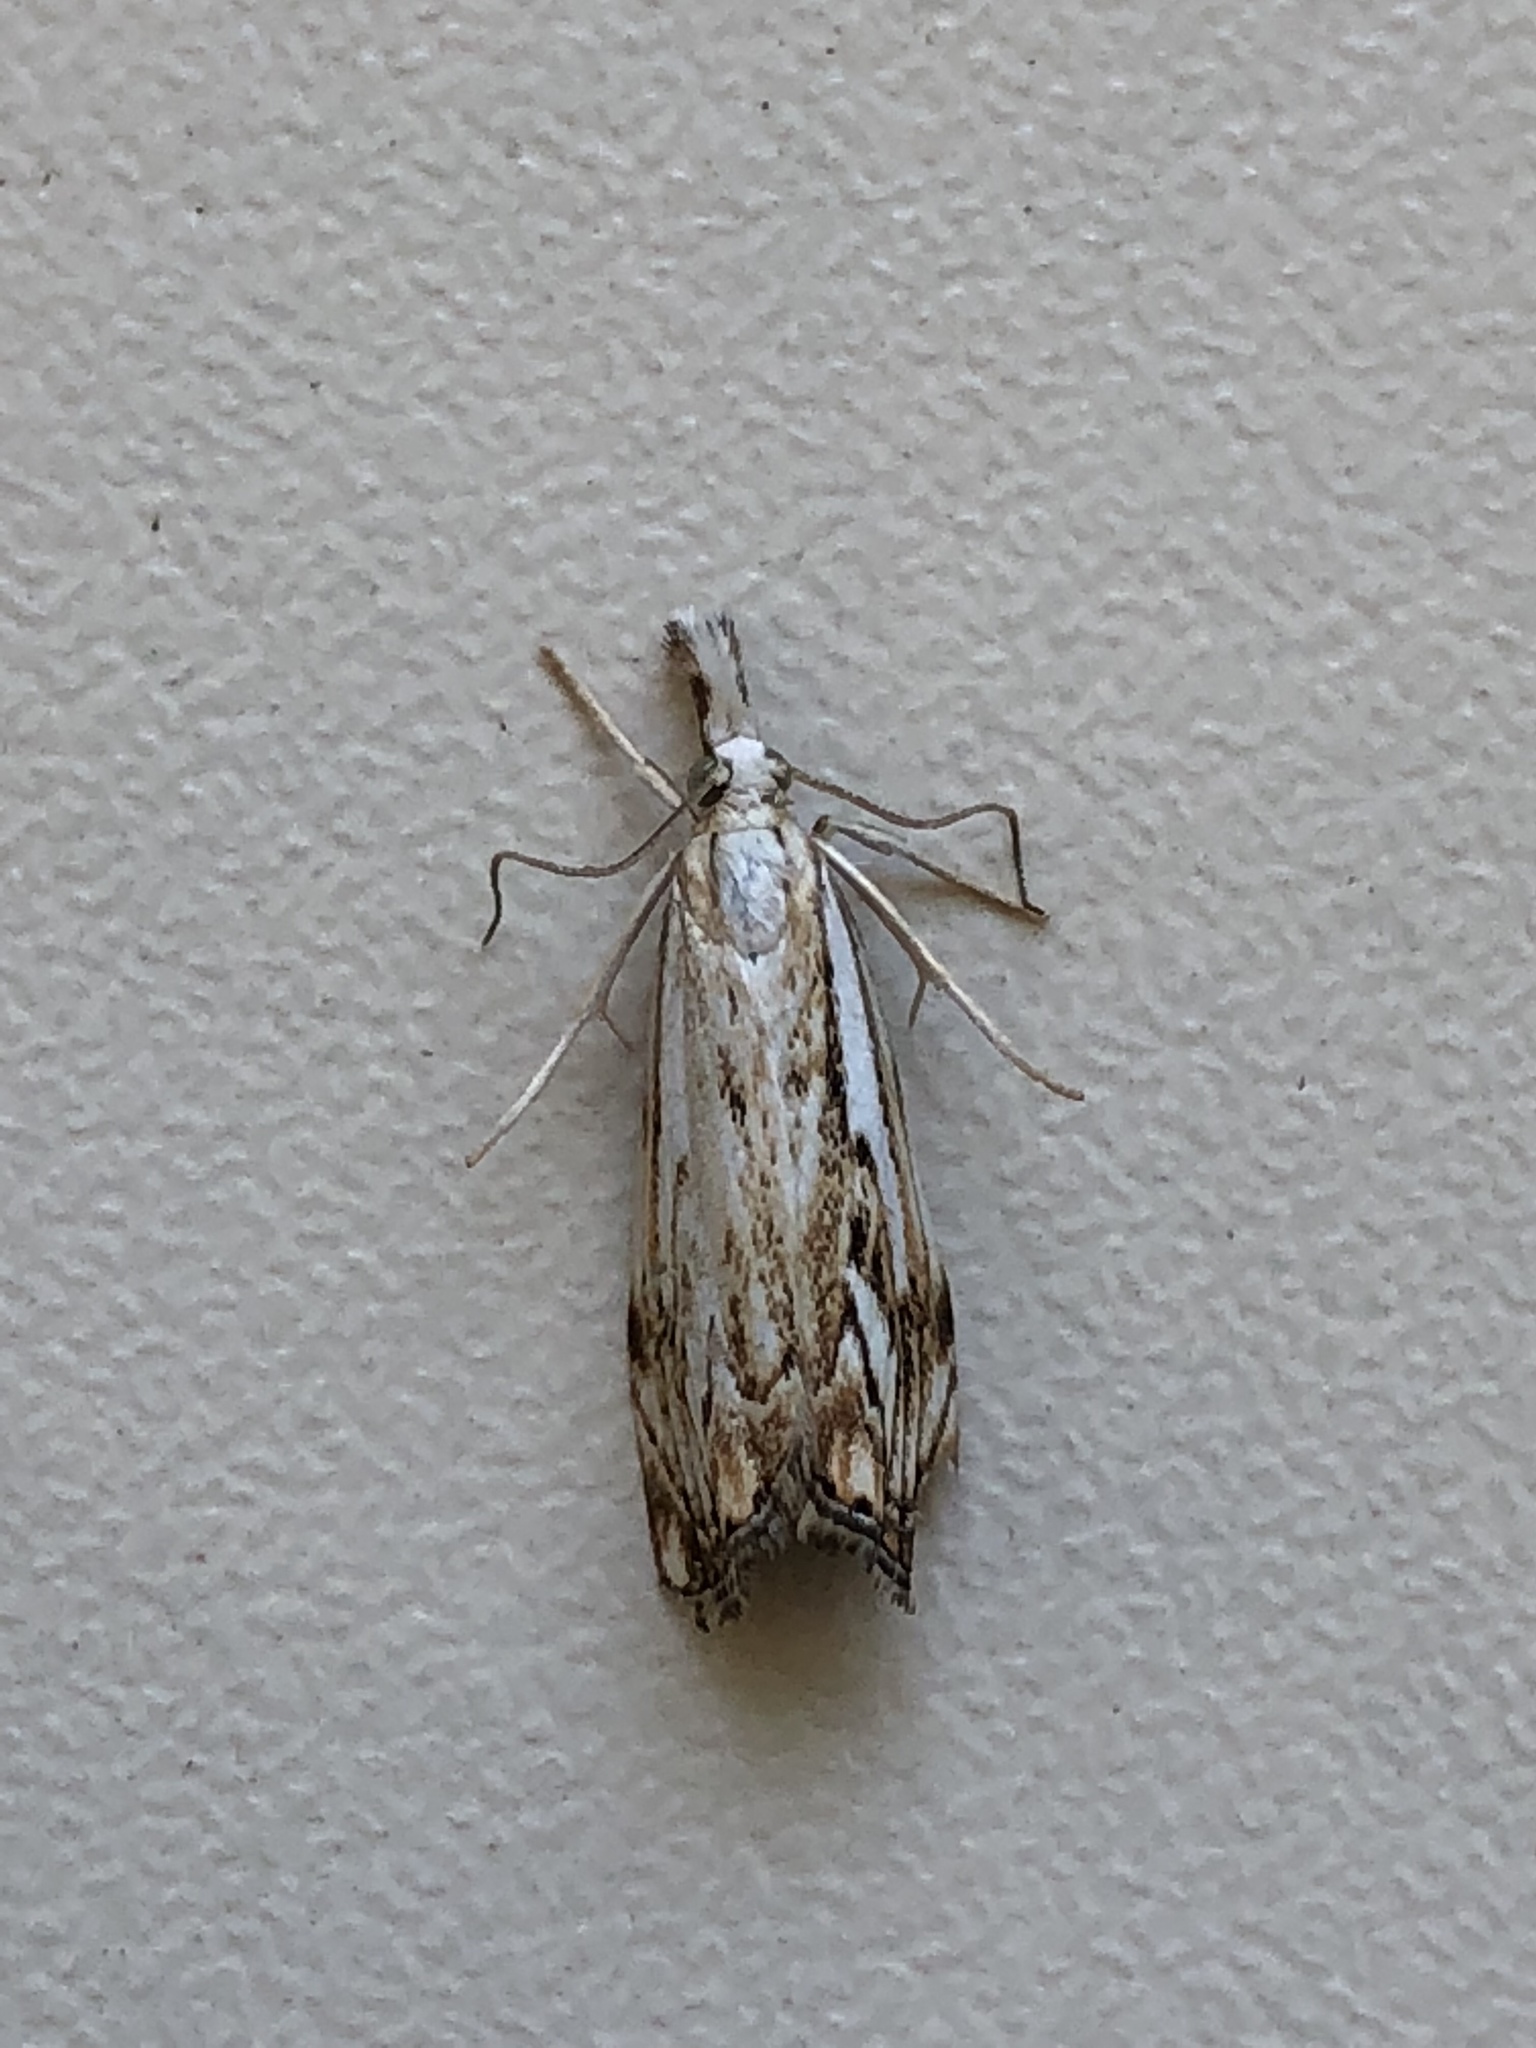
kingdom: Animalia
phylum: Arthropoda
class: Insecta
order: Lepidoptera
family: Crambidae
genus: Catoptria
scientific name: Catoptria falsella
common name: Chequered grass-veneer
